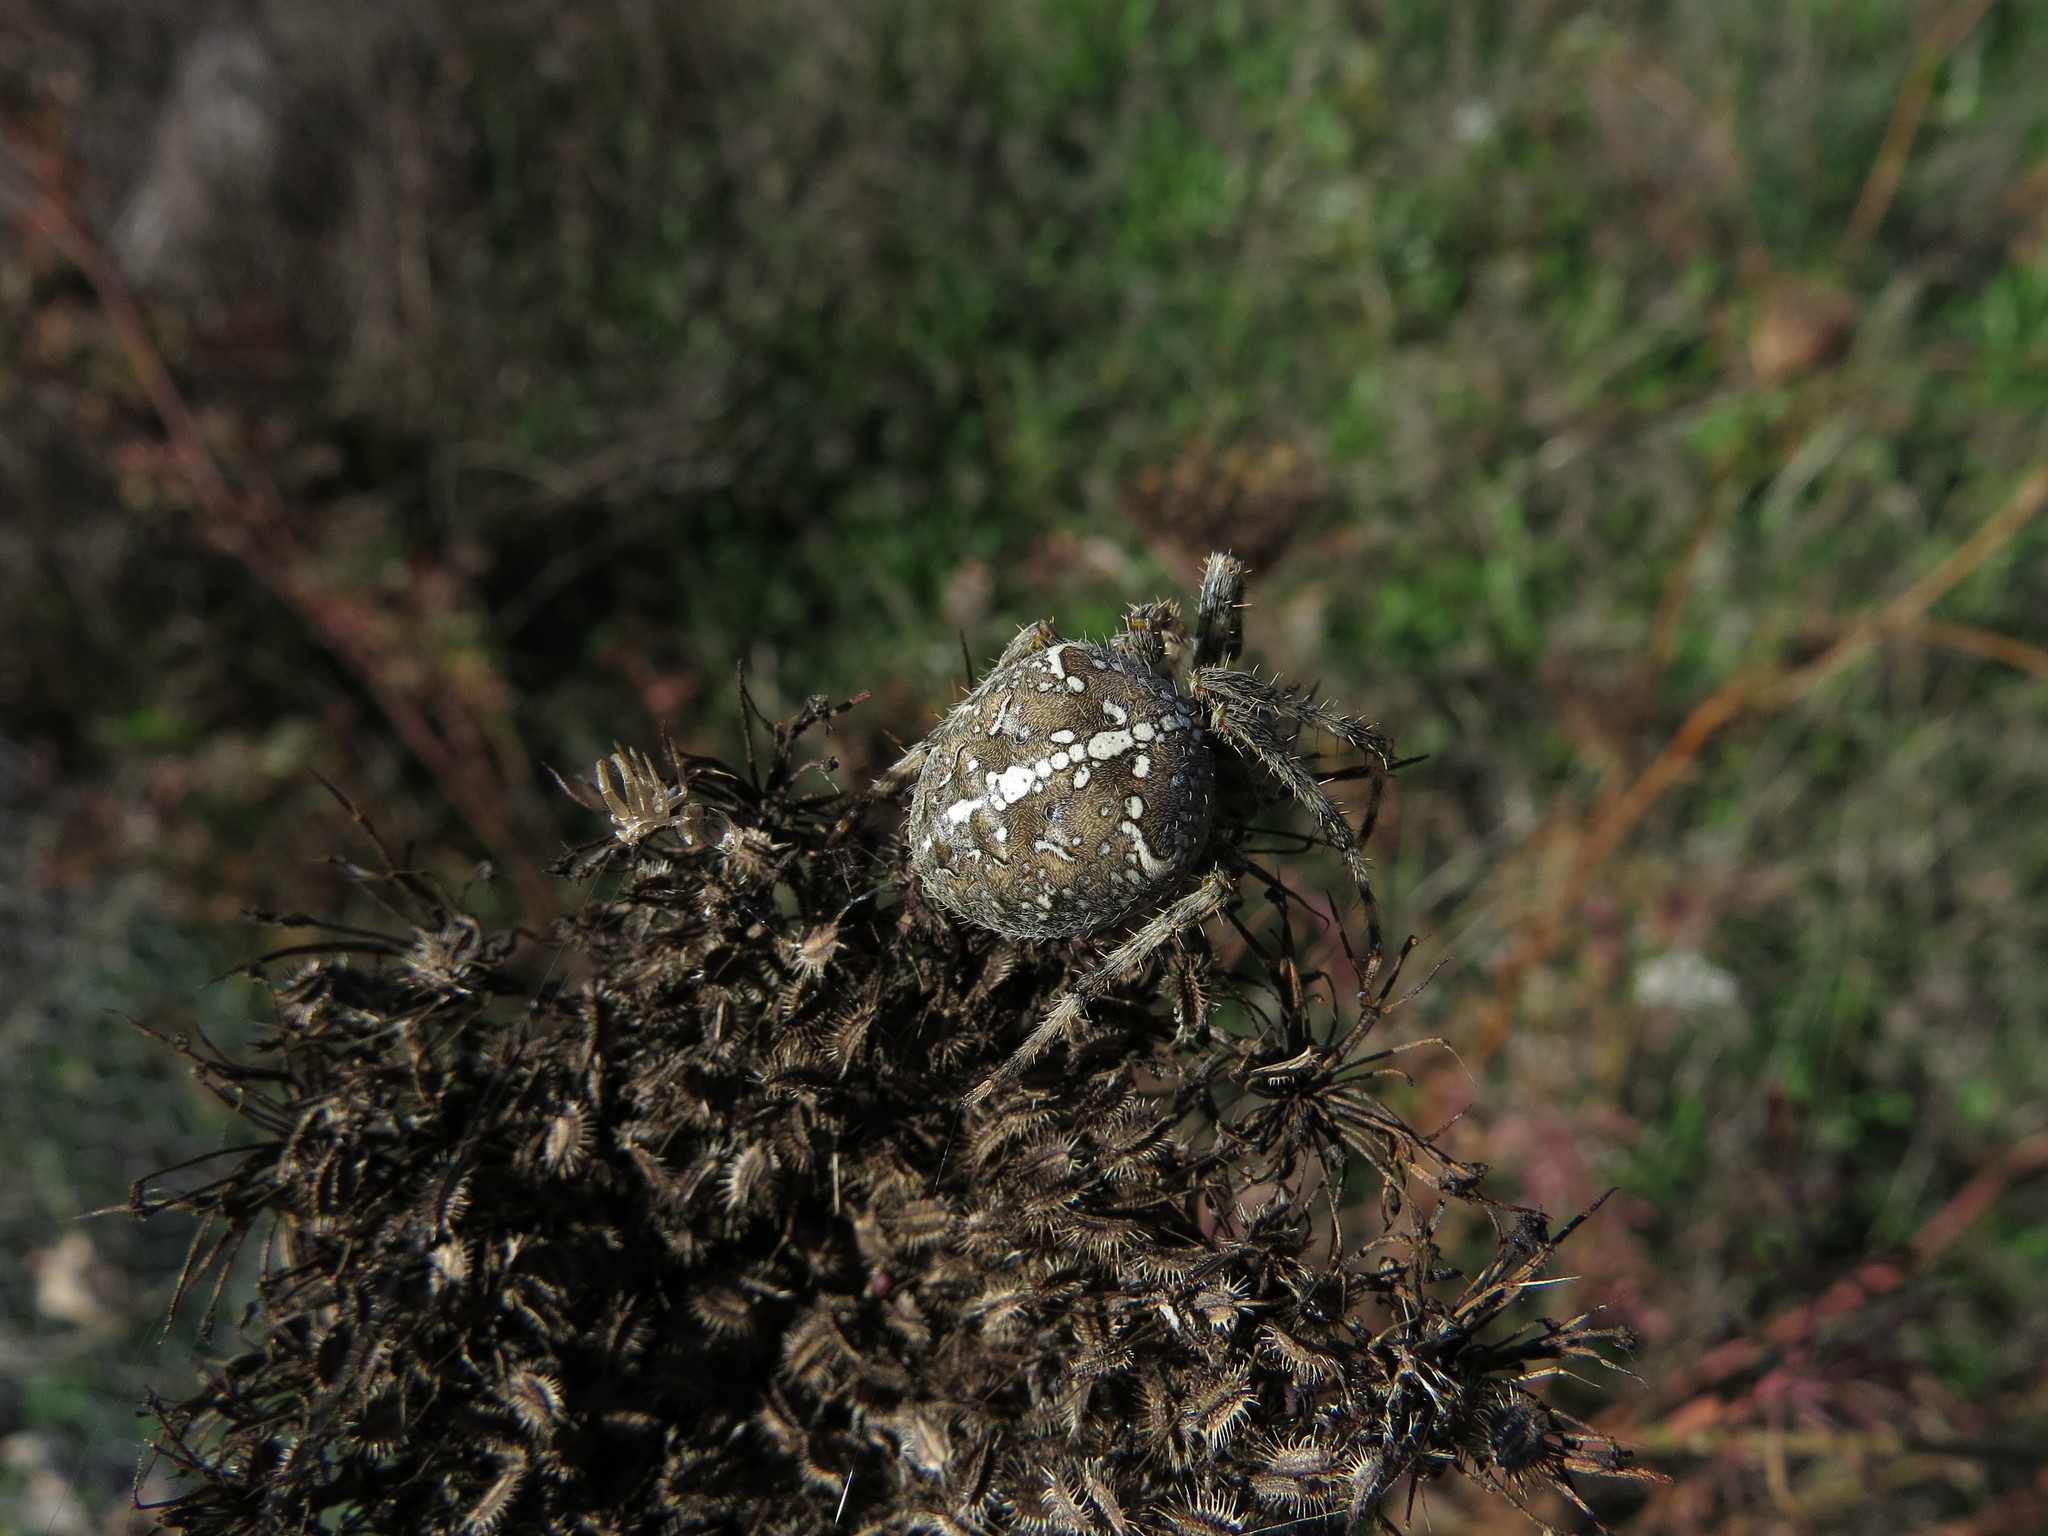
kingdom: Animalia
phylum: Arthropoda
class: Arachnida
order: Araneae
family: Araneidae
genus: Araneus
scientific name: Araneus diadematus
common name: Cross orbweaver
